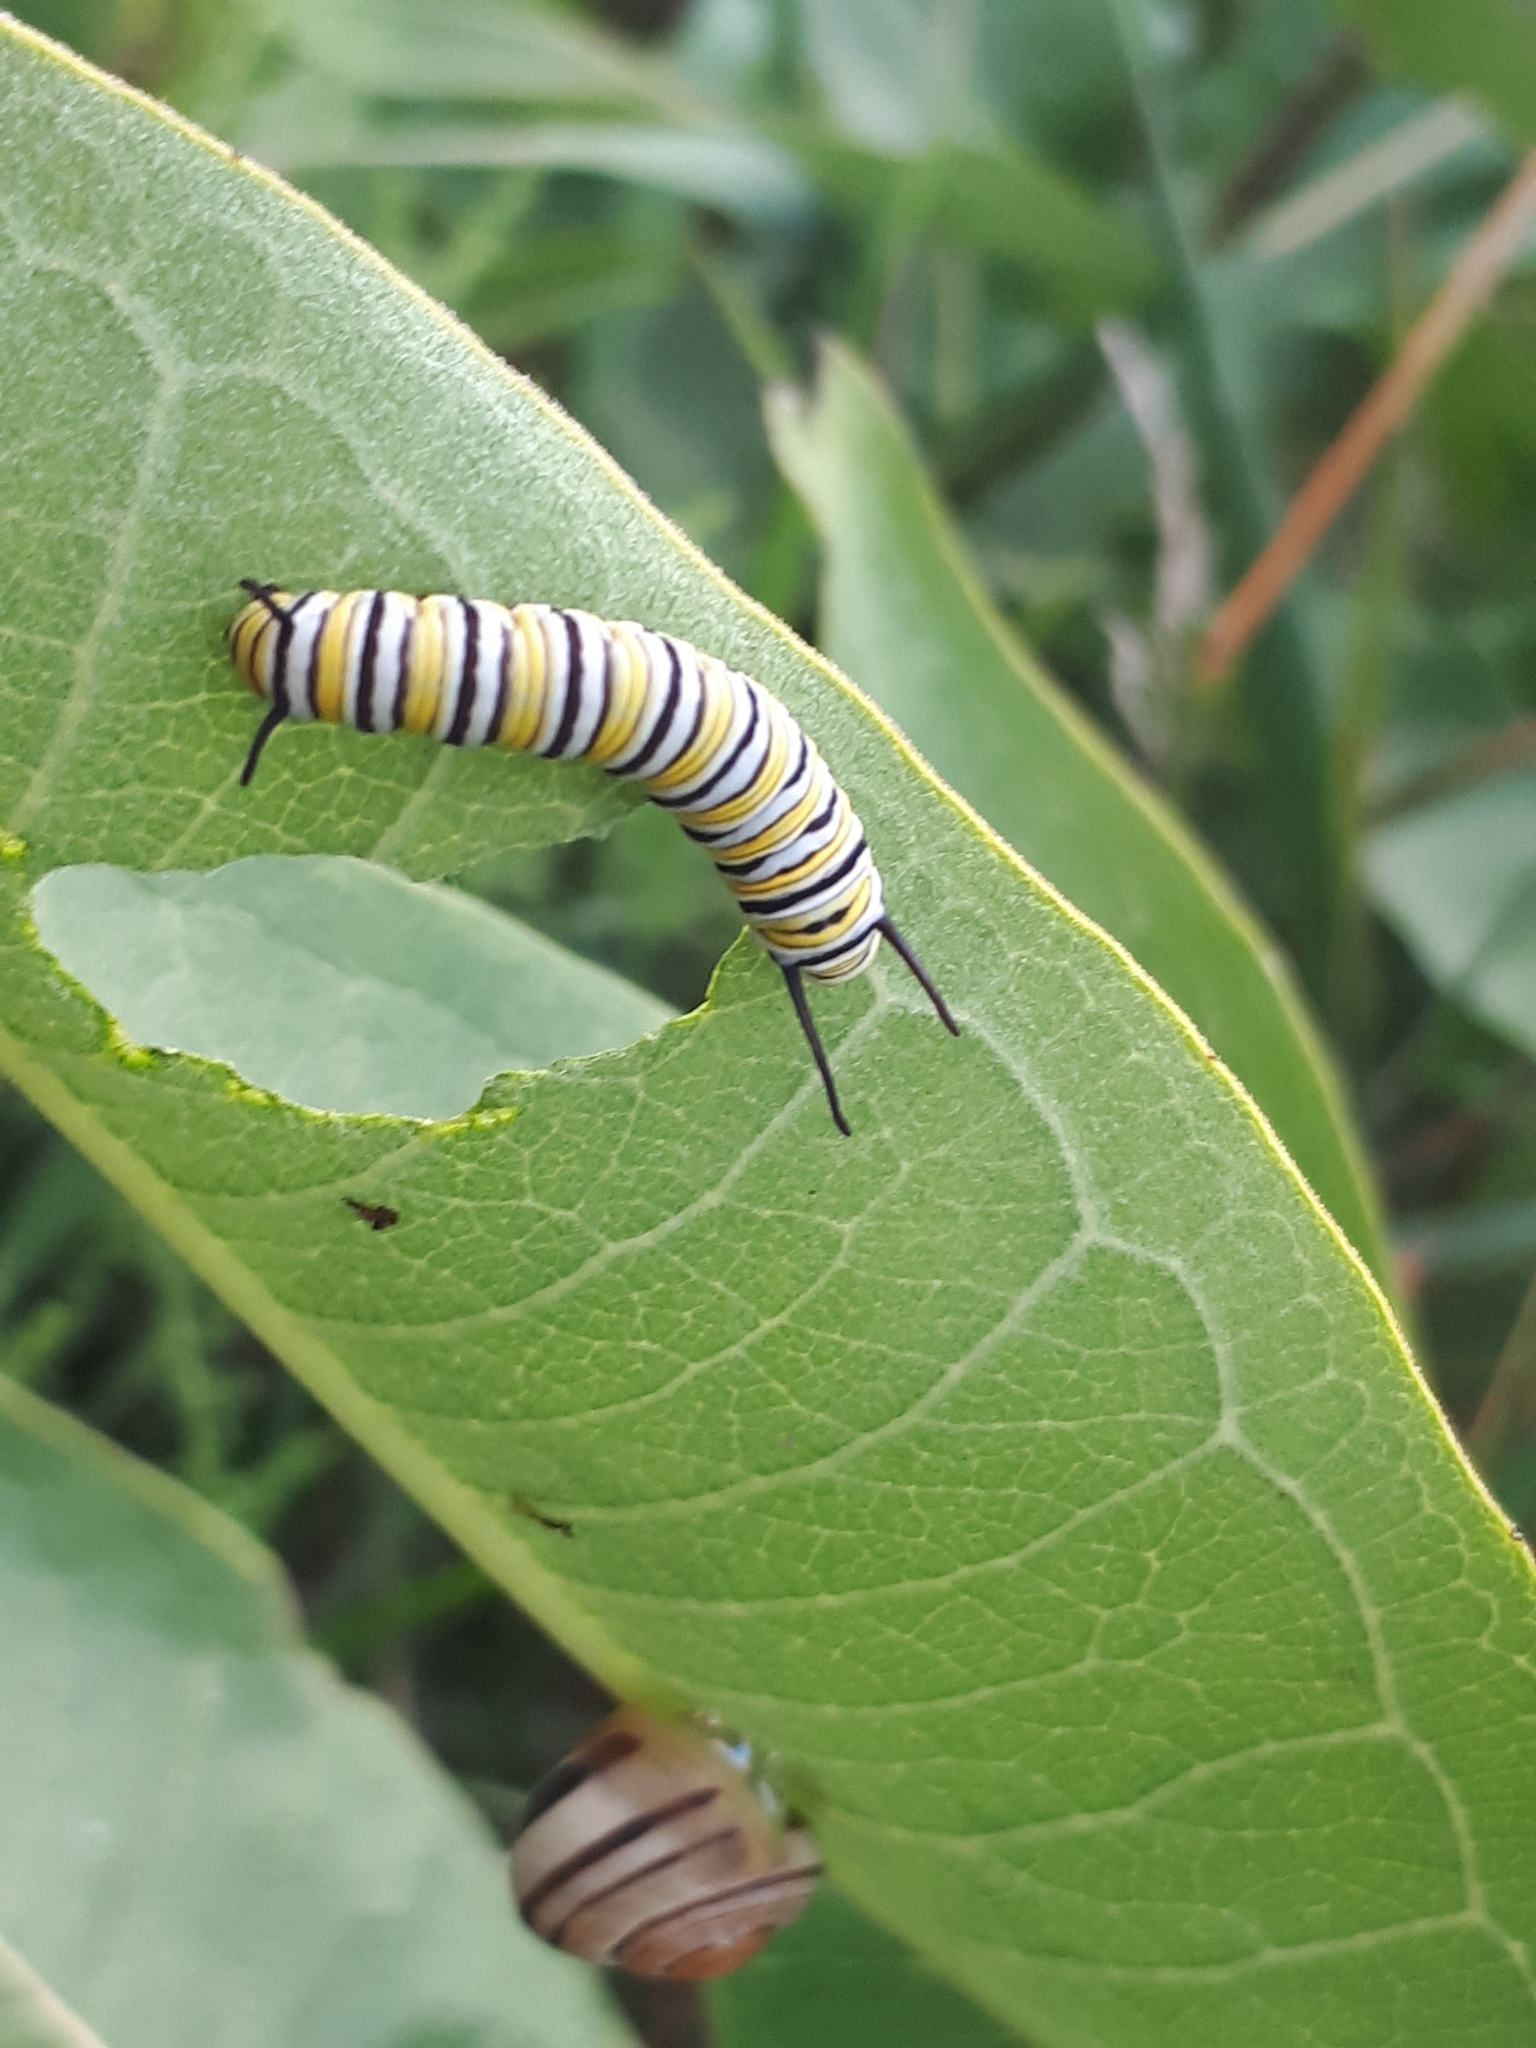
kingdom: Animalia
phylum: Arthropoda
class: Insecta
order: Lepidoptera
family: Nymphalidae
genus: Danaus
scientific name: Danaus plexippus
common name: Monarch
